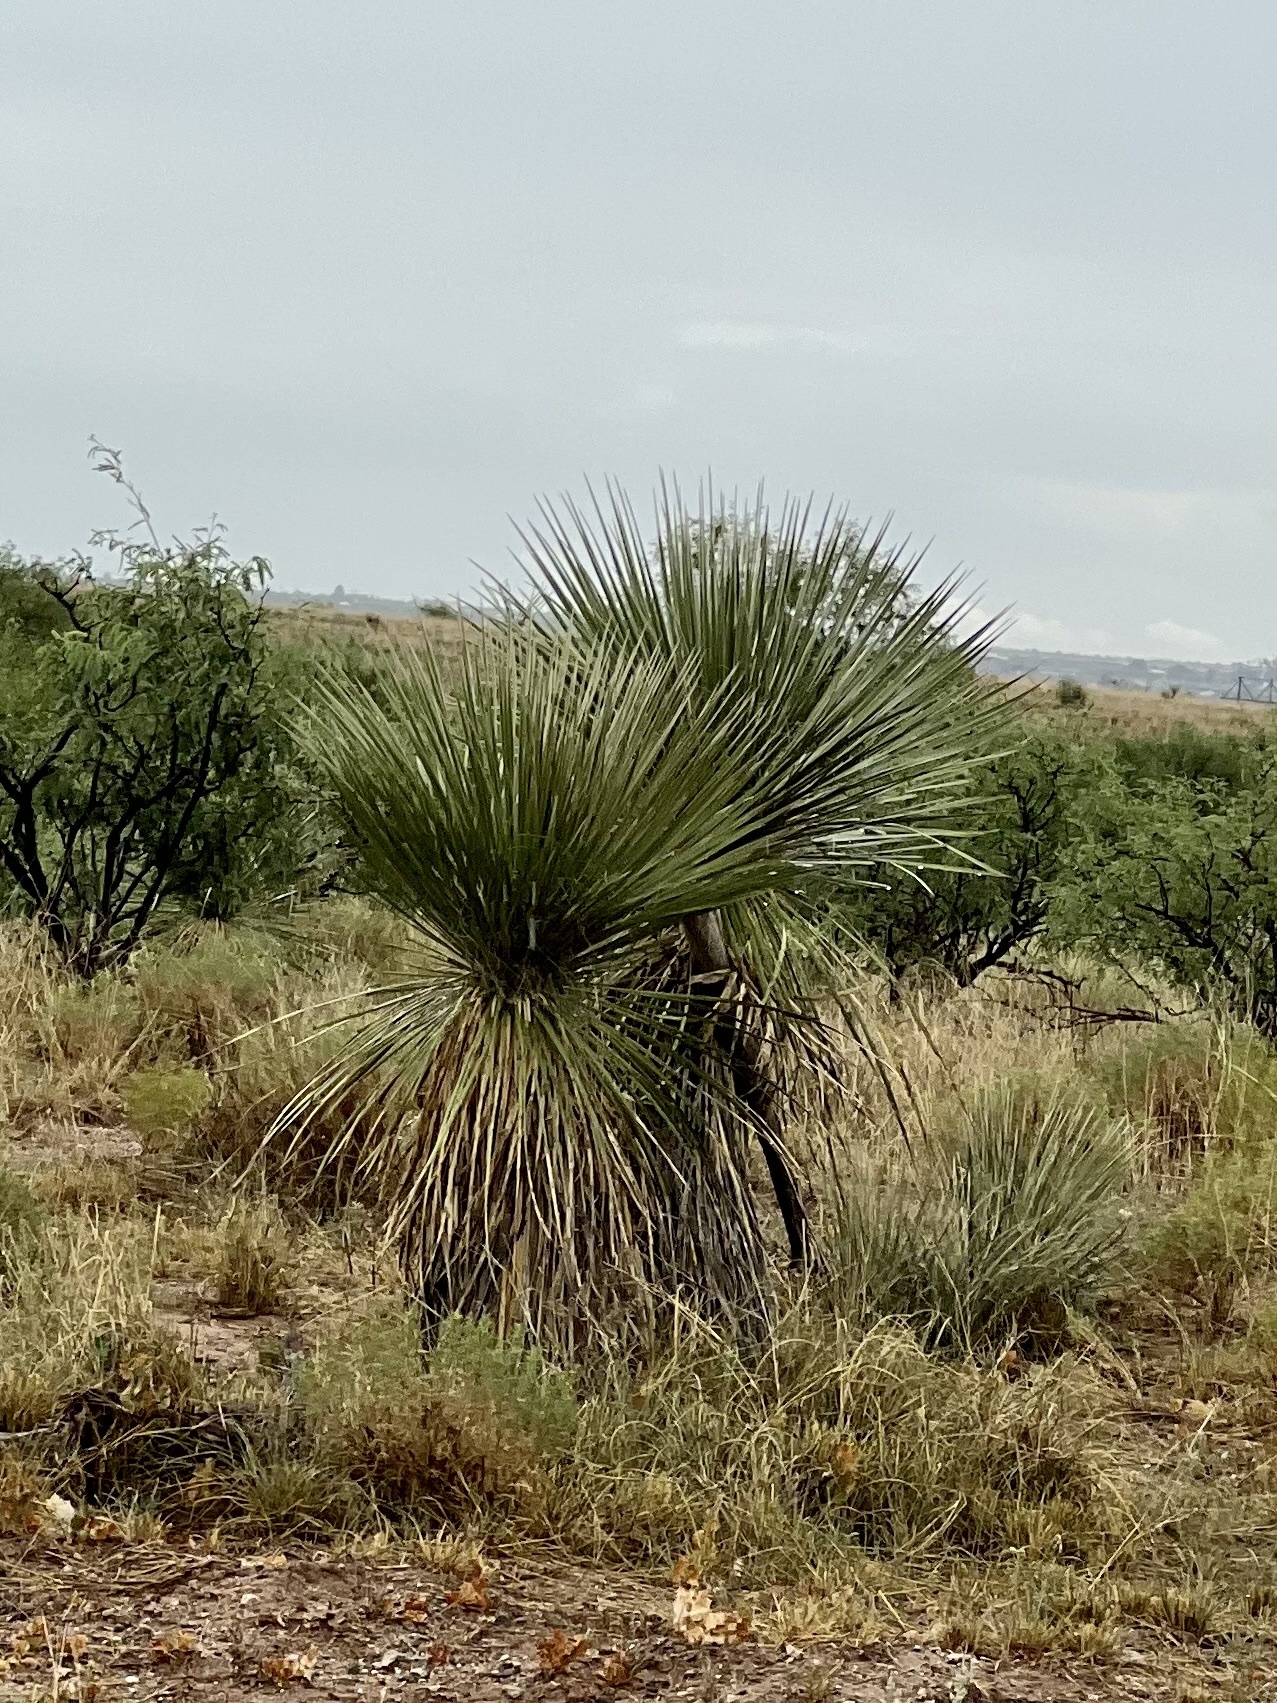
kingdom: Plantae
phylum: Tracheophyta
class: Liliopsida
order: Asparagales
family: Asparagaceae
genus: Yucca
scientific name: Yucca elata
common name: Palmella
